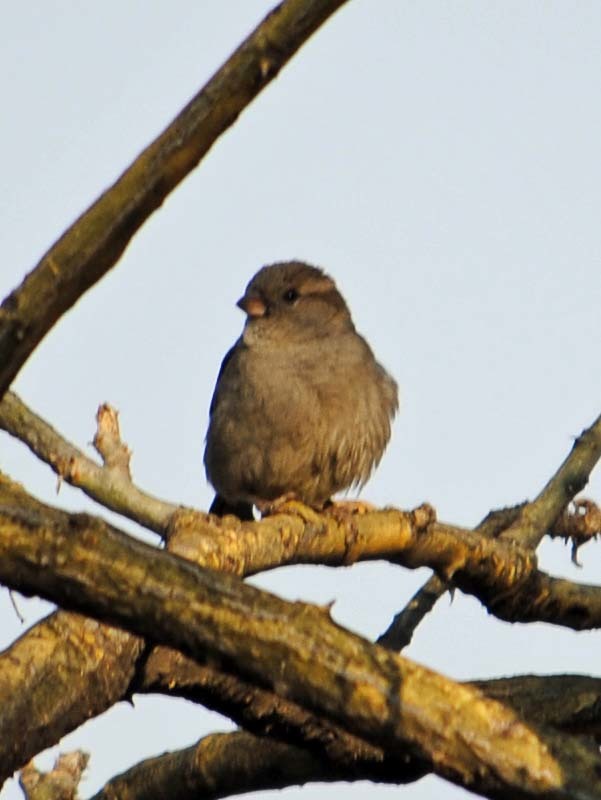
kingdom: Animalia
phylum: Chordata
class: Aves
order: Passeriformes
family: Passeridae
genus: Passer
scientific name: Passer domesticus
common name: House sparrow
